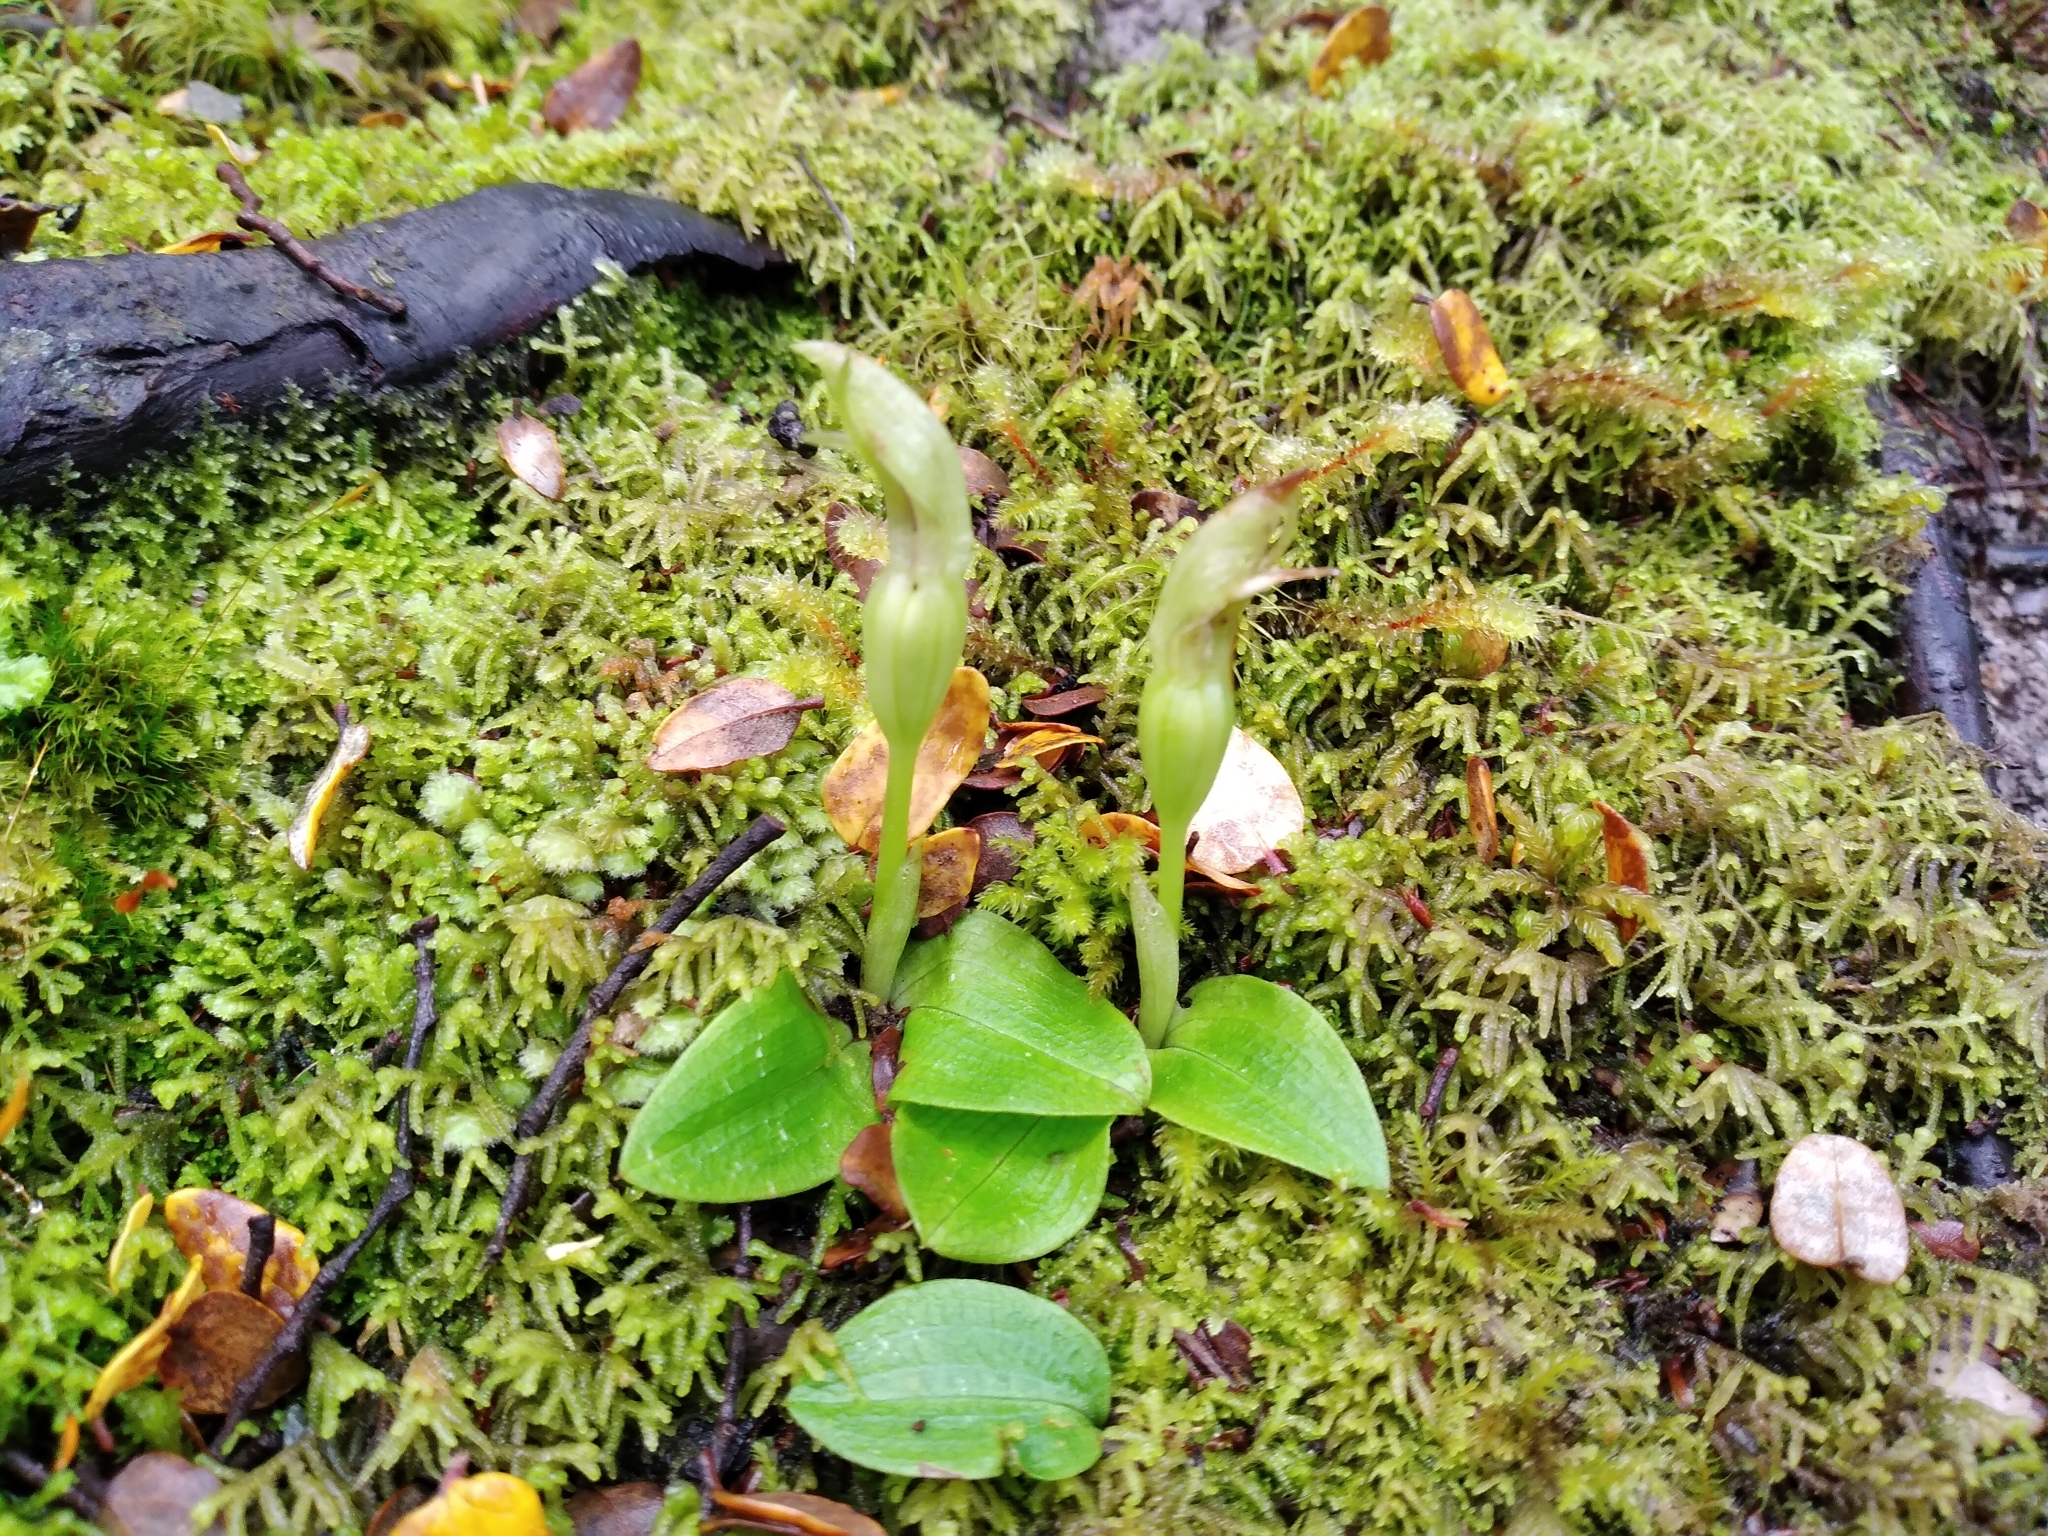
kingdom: Plantae
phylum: Tracheophyta
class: Liliopsida
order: Asparagales
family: Orchidaceae
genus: Chiloglottis
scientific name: Chiloglottis cornuta
